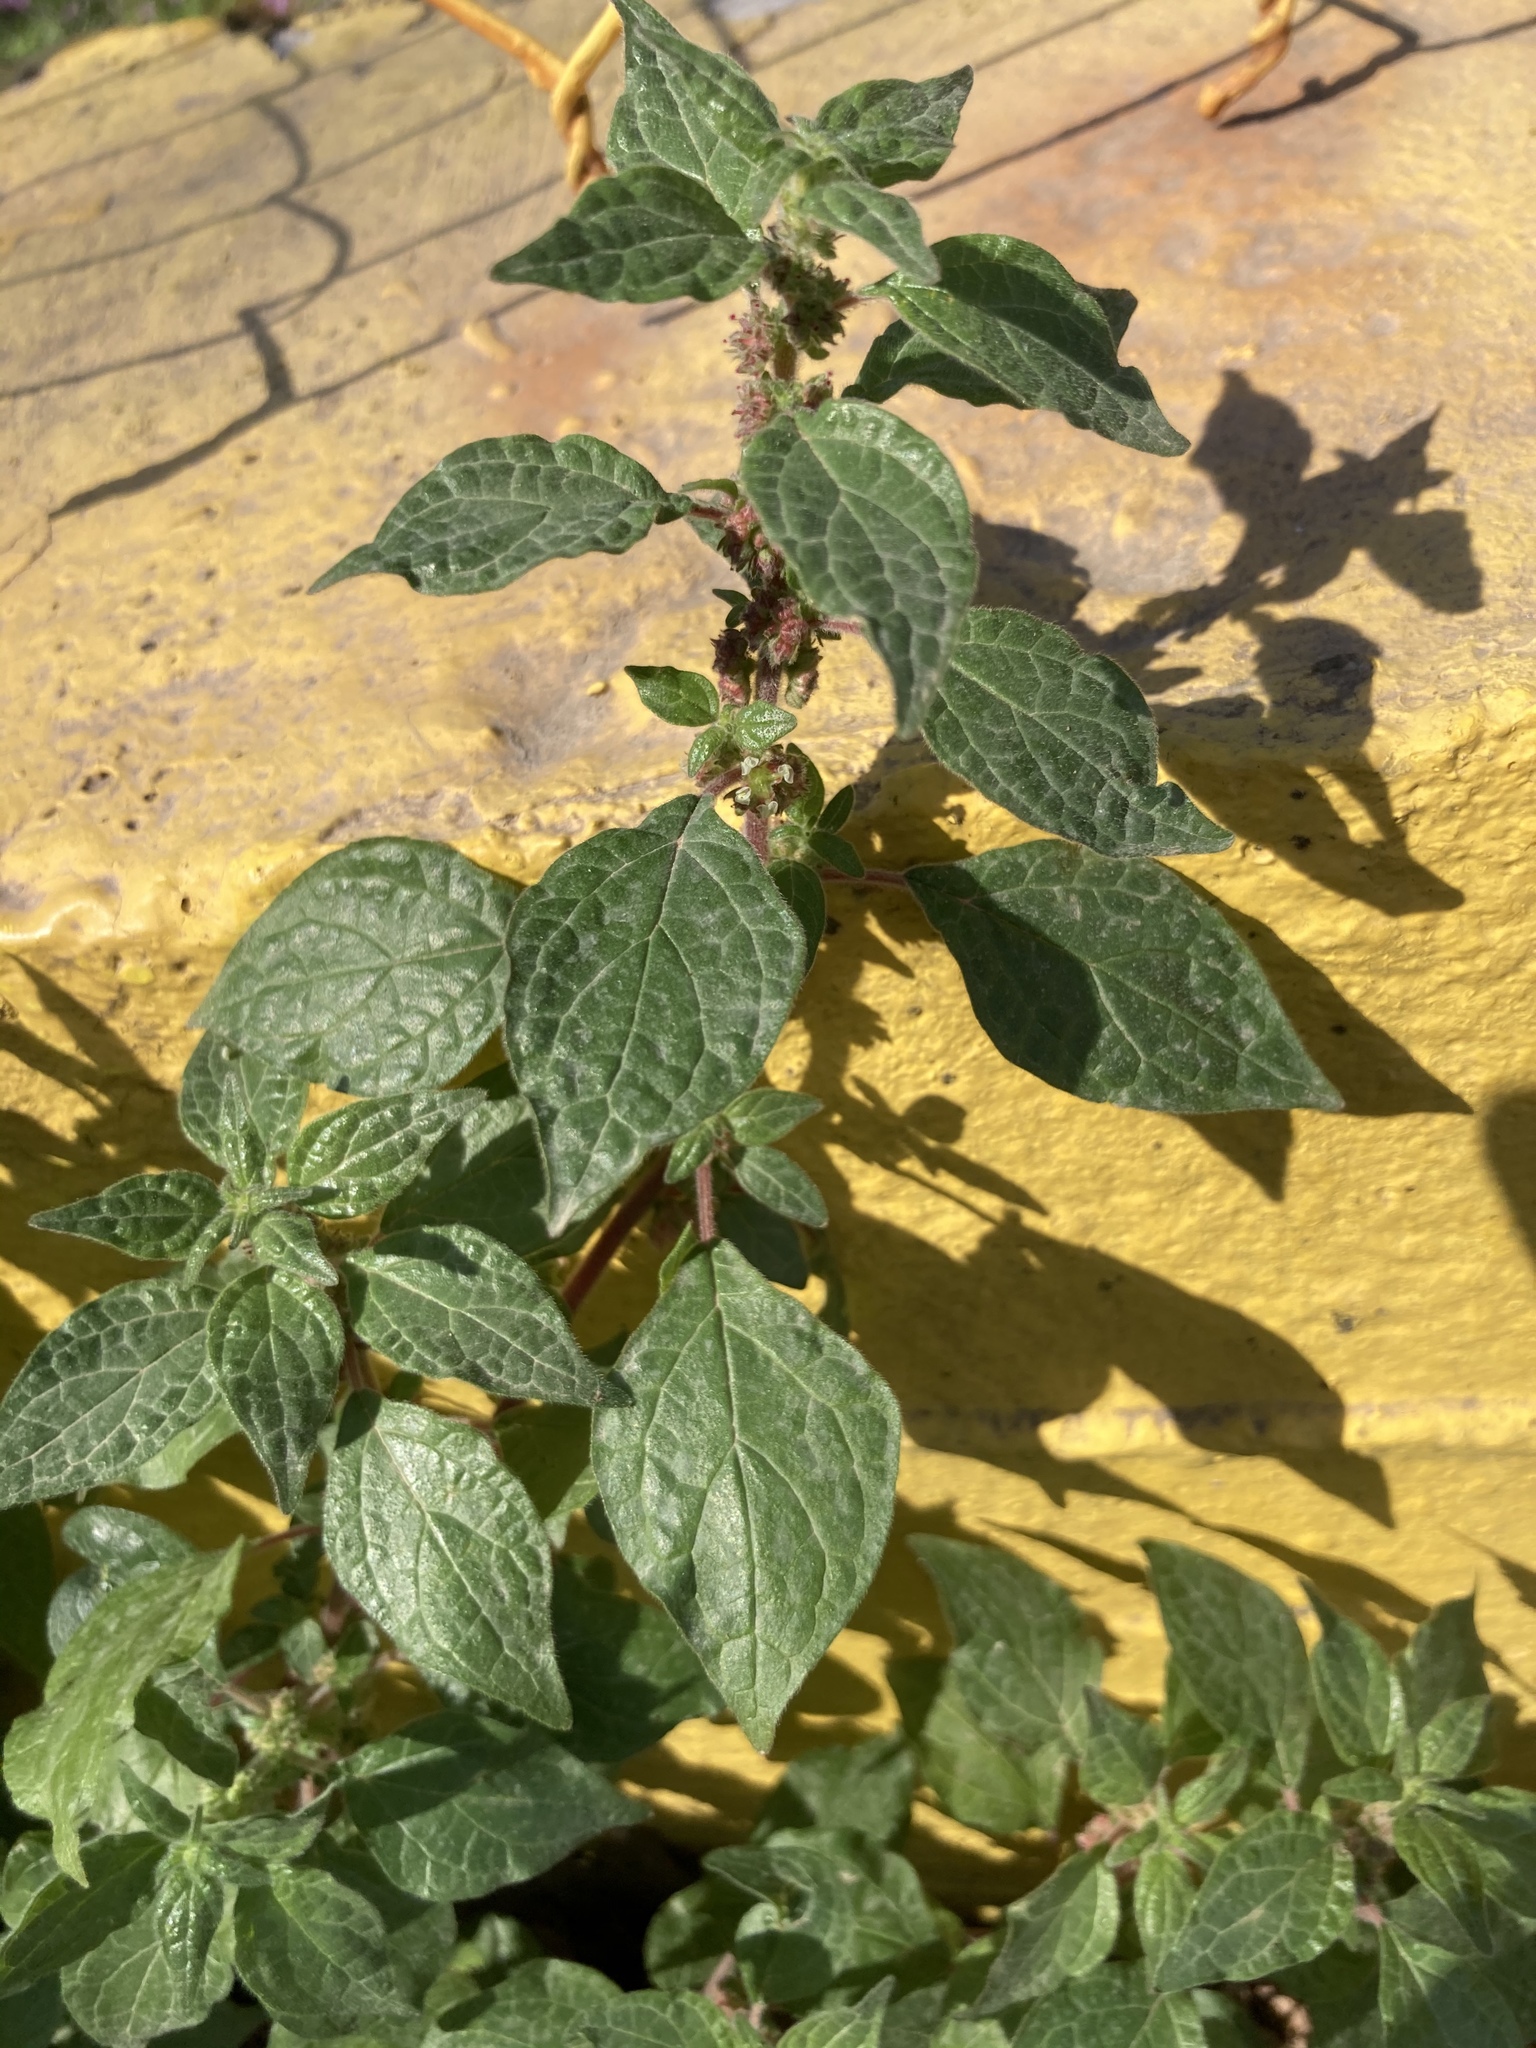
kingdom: Plantae
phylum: Tracheophyta
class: Magnoliopsida
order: Rosales
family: Urticaceae
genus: Parietaria
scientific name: Parietaria judaica
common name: Pellitory-of-the-wall
